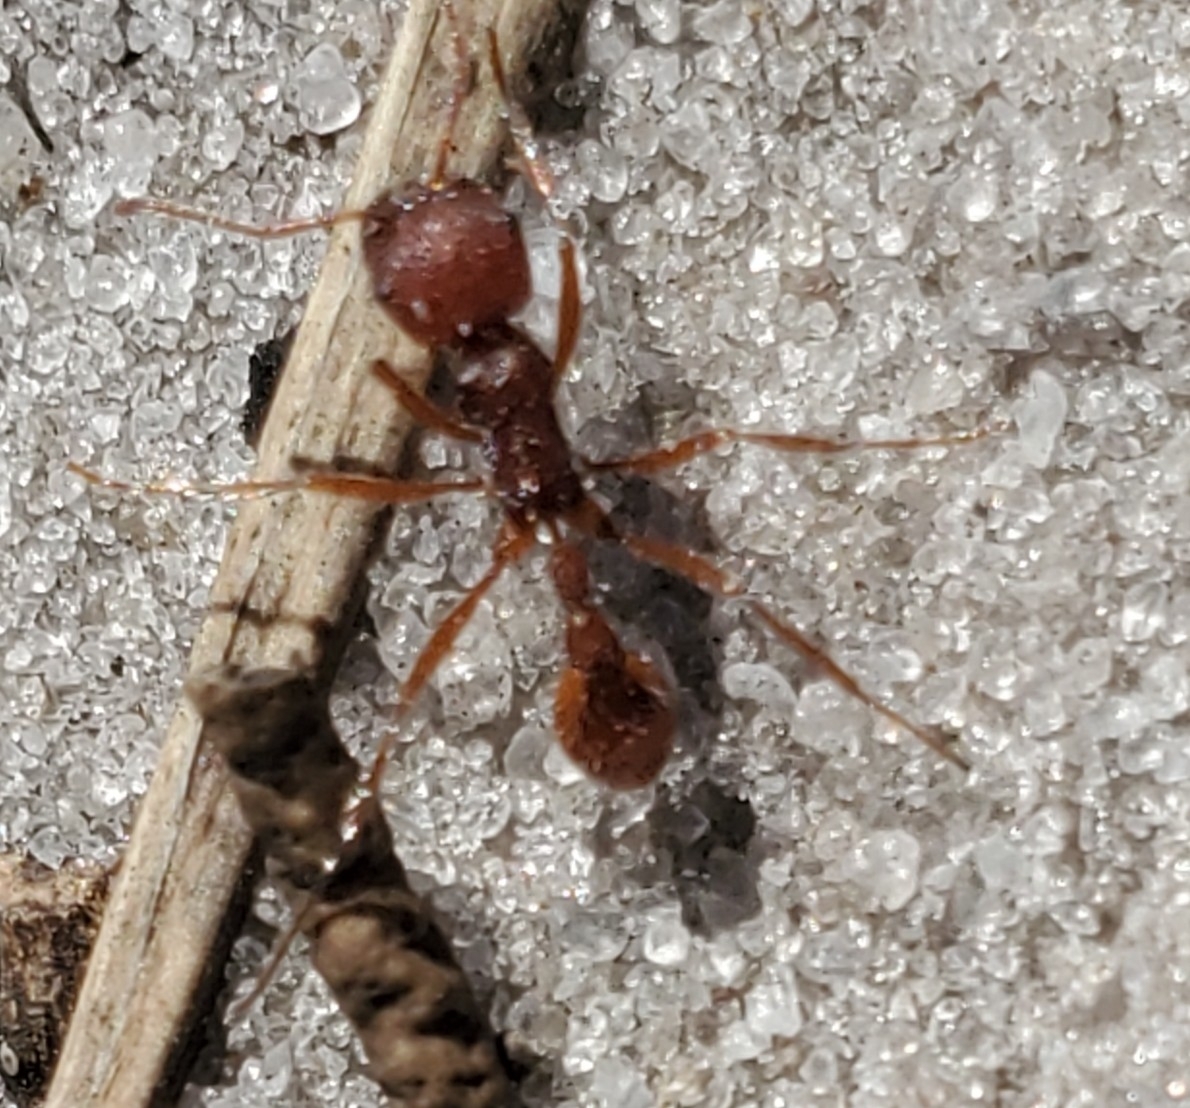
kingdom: Animalia
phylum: Arthropoda
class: Insecta
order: Hymenoptera
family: Formicidae
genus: Pogonomyrmex
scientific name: Pogonomyrmex badius
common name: Florida harvester ant
